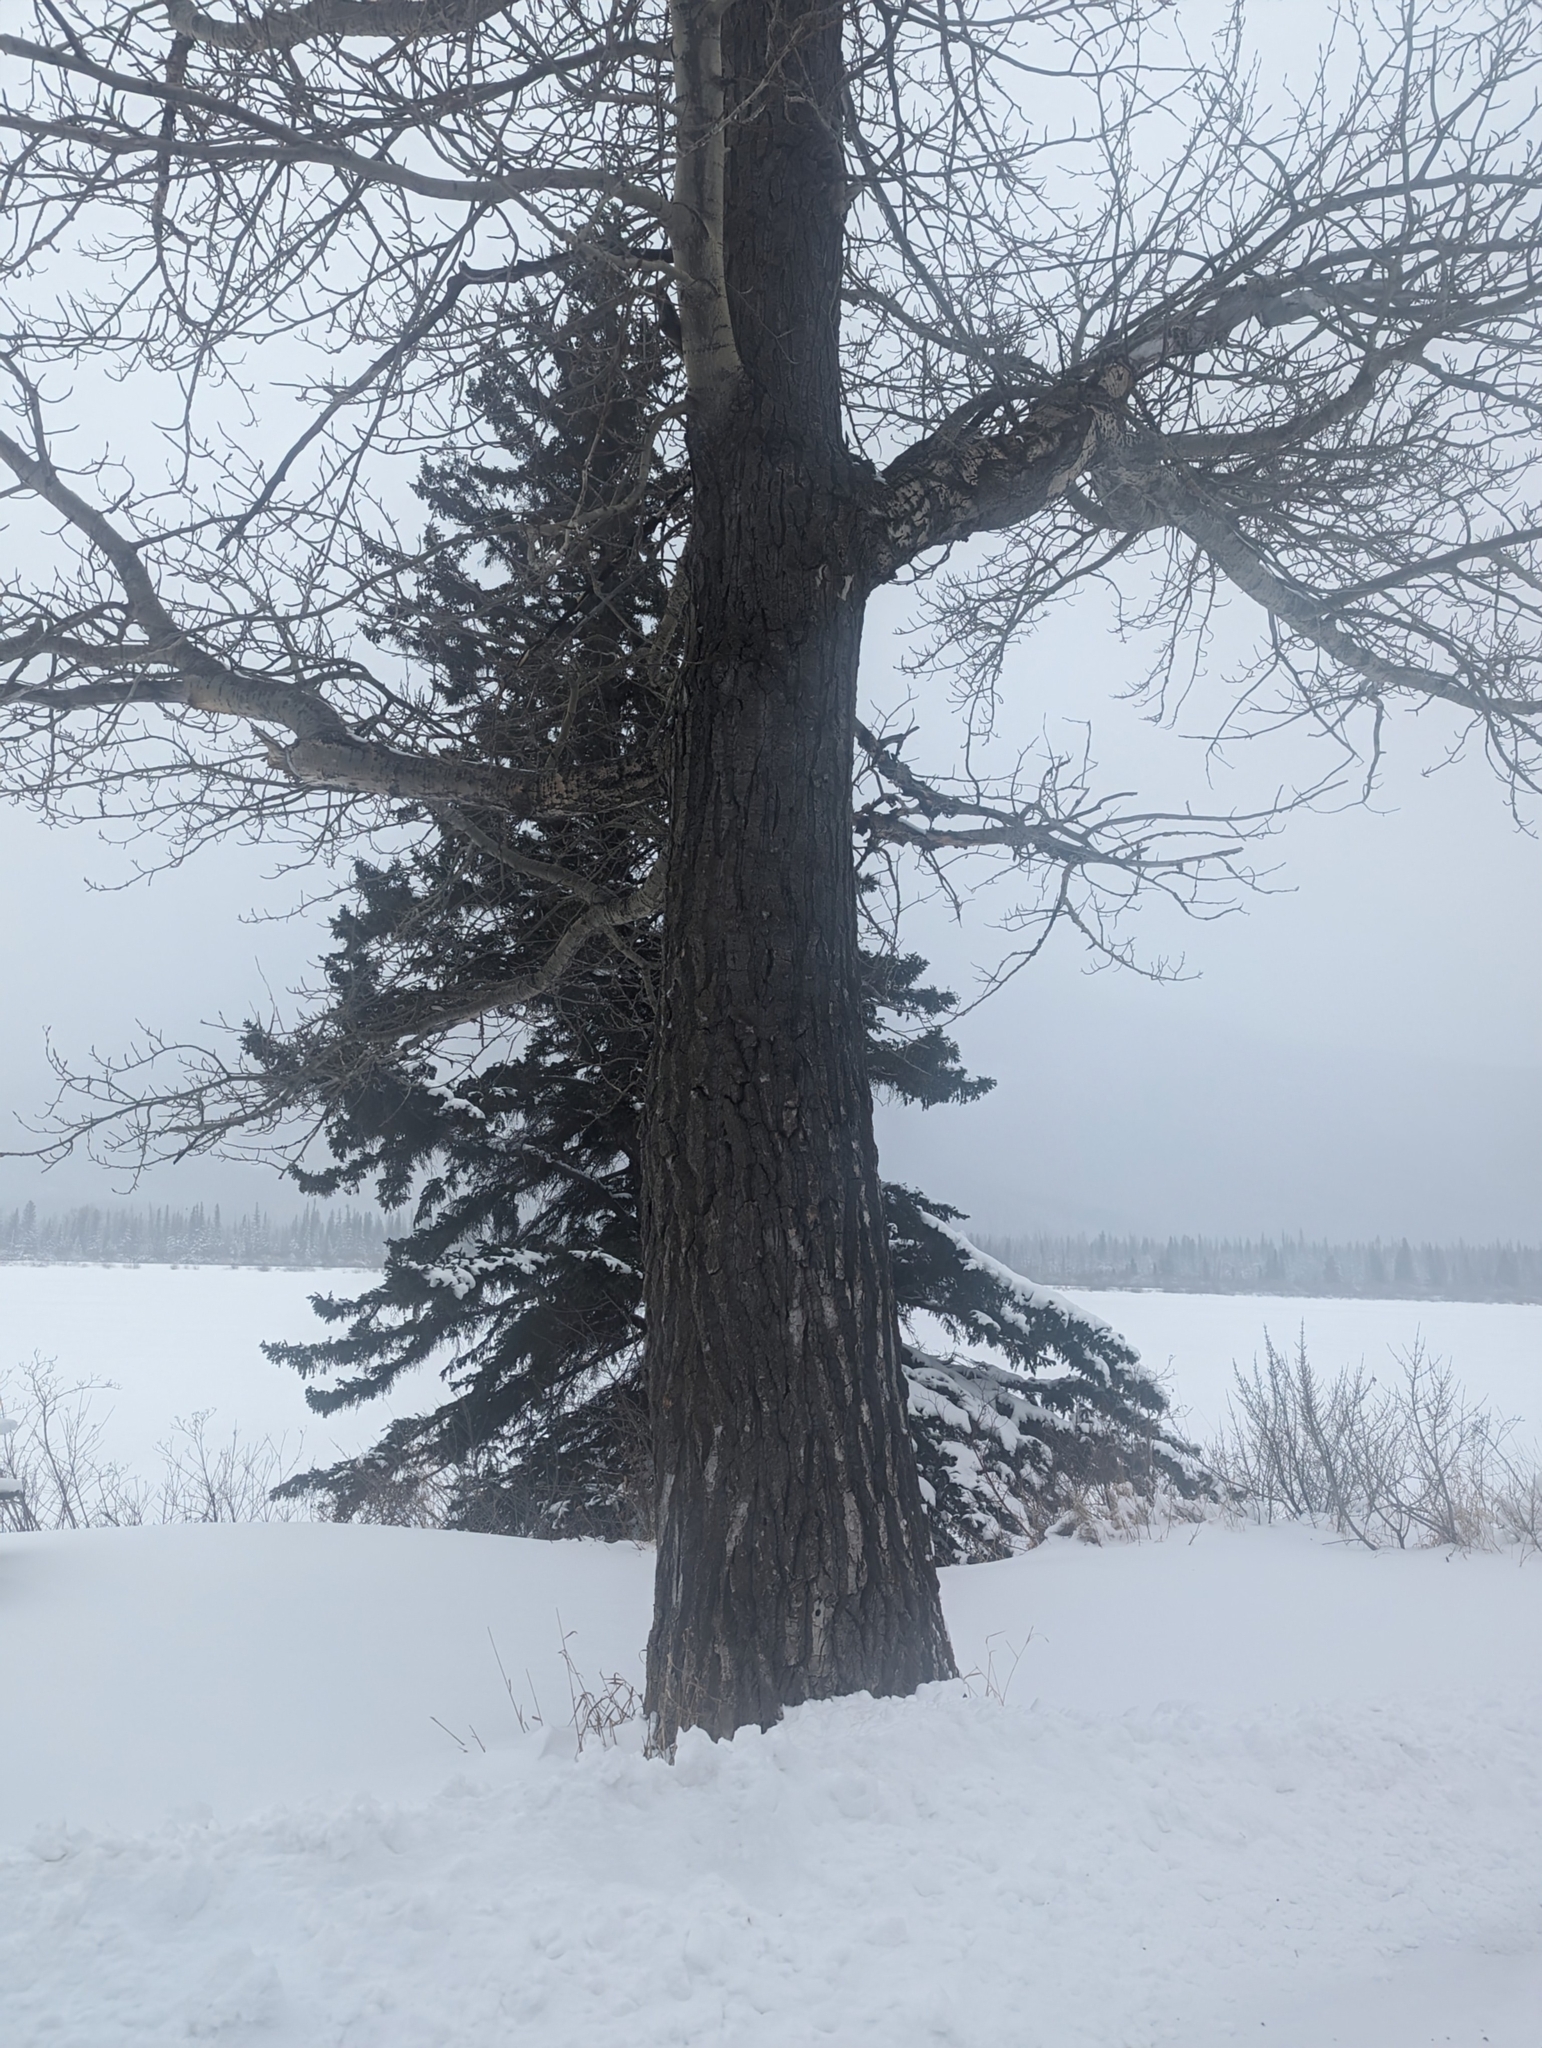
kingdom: Plantae
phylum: Tracheophyta
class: Magnoliopsida
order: Malpighiales
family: Salicaceae
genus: Populus
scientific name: Populus balsamifera
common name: Balsam poplar
